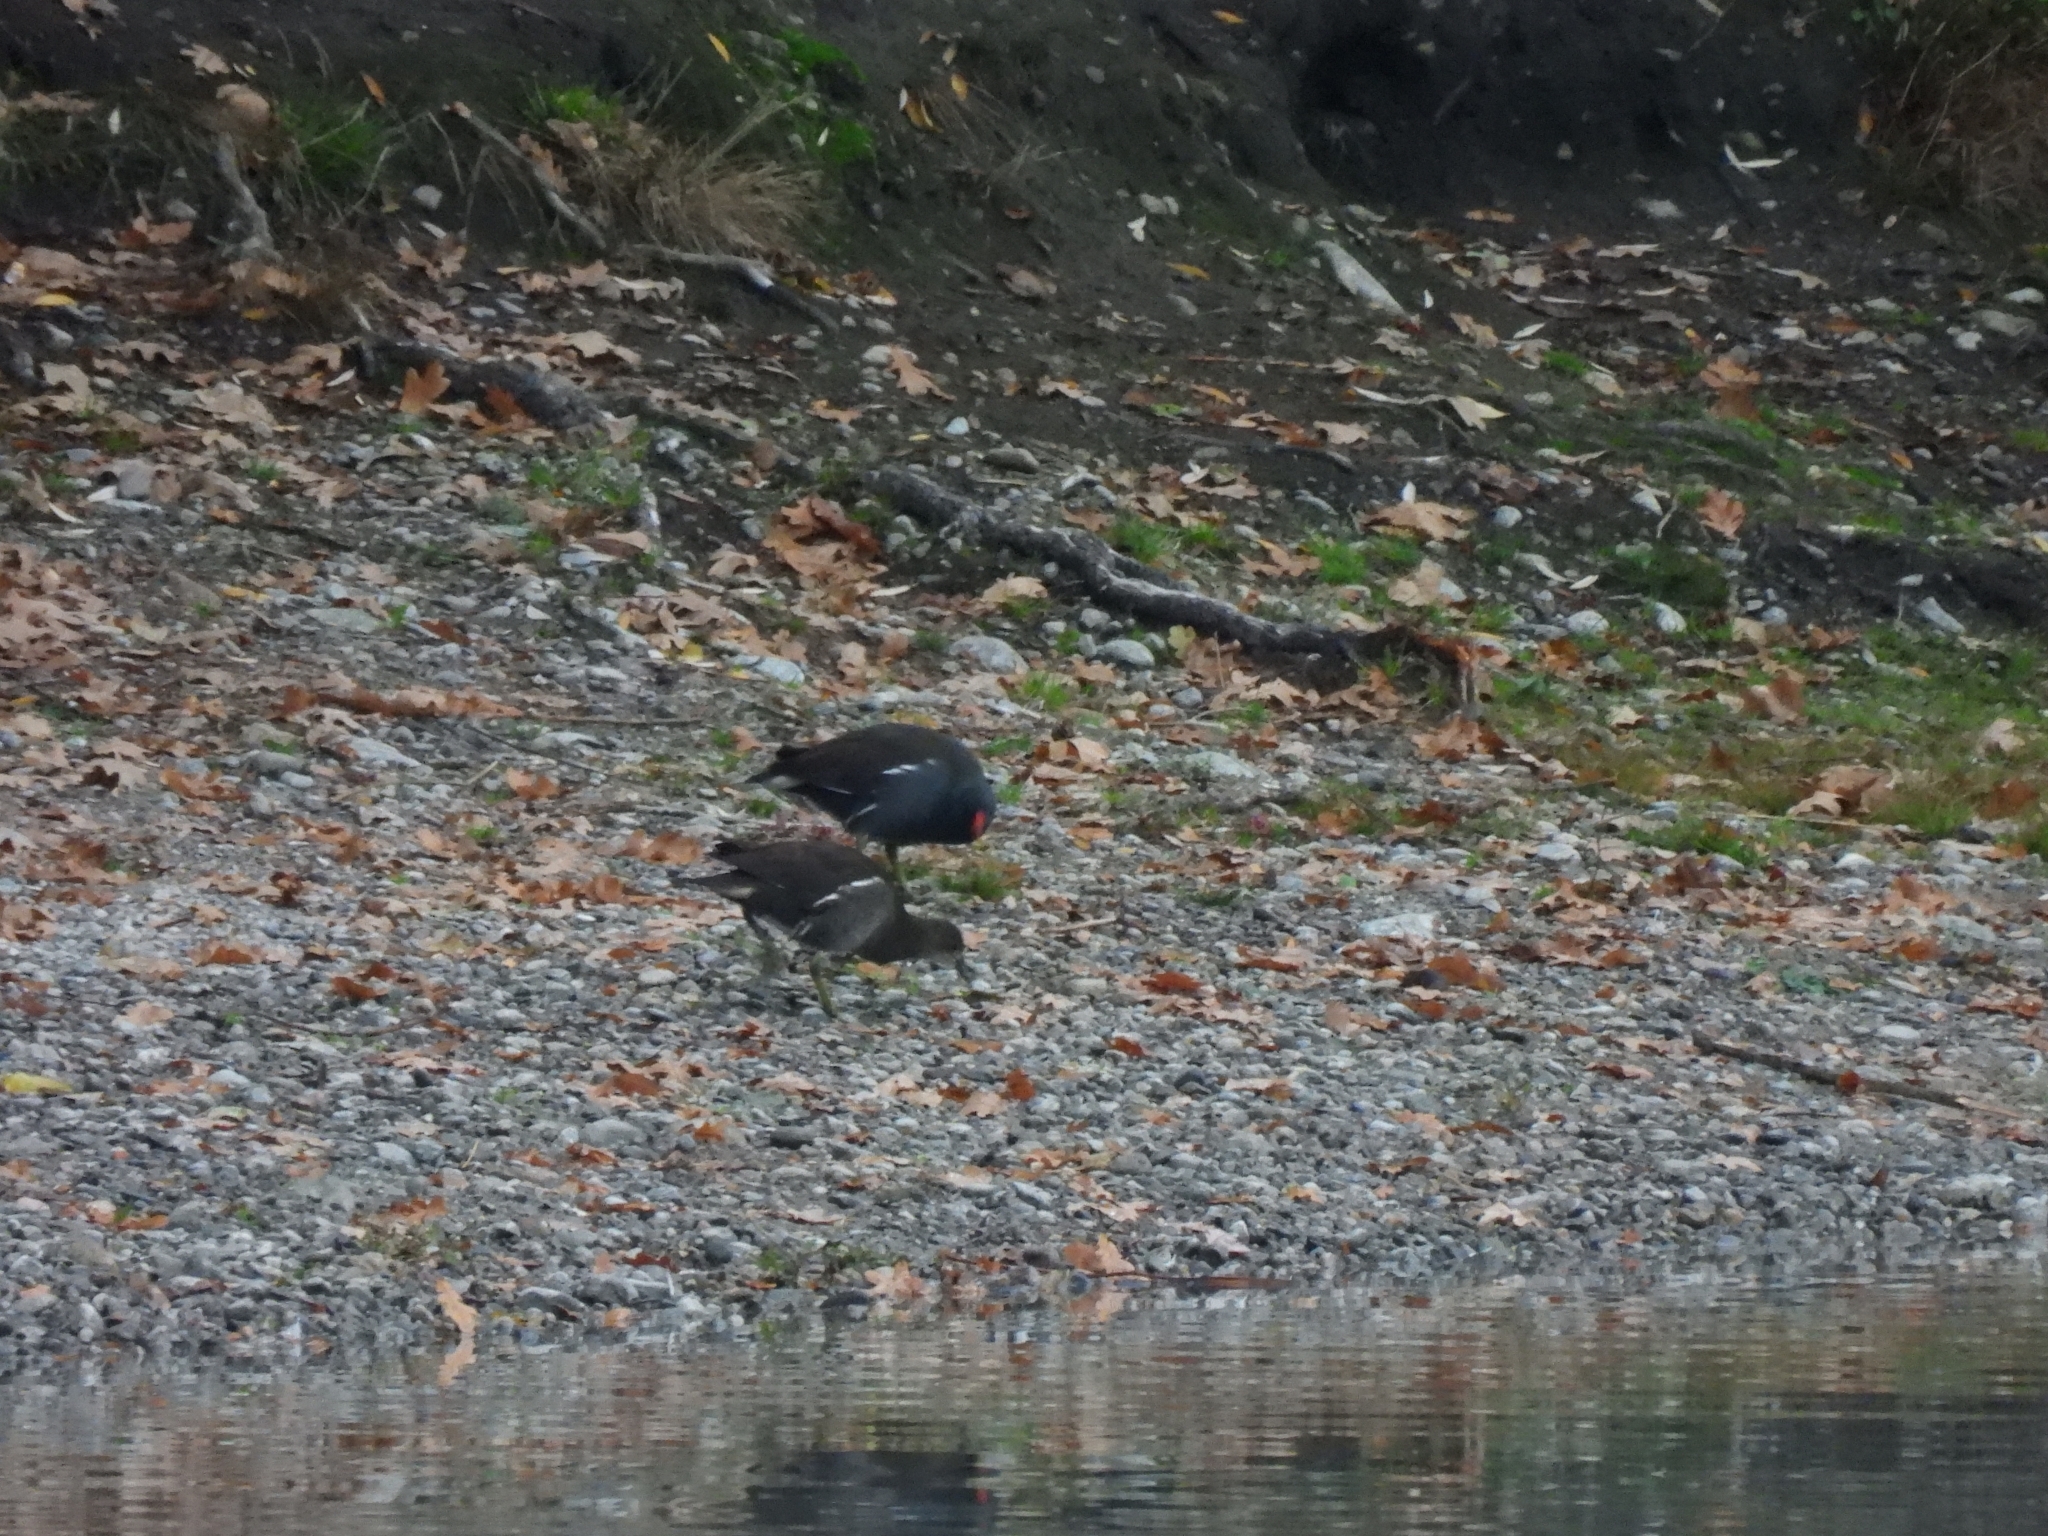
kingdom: Animalia
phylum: Chordata
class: Aves
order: Gruiformes
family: Rallidae
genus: Gallinula
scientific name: Gallinula chloropus
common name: Common moorhen
